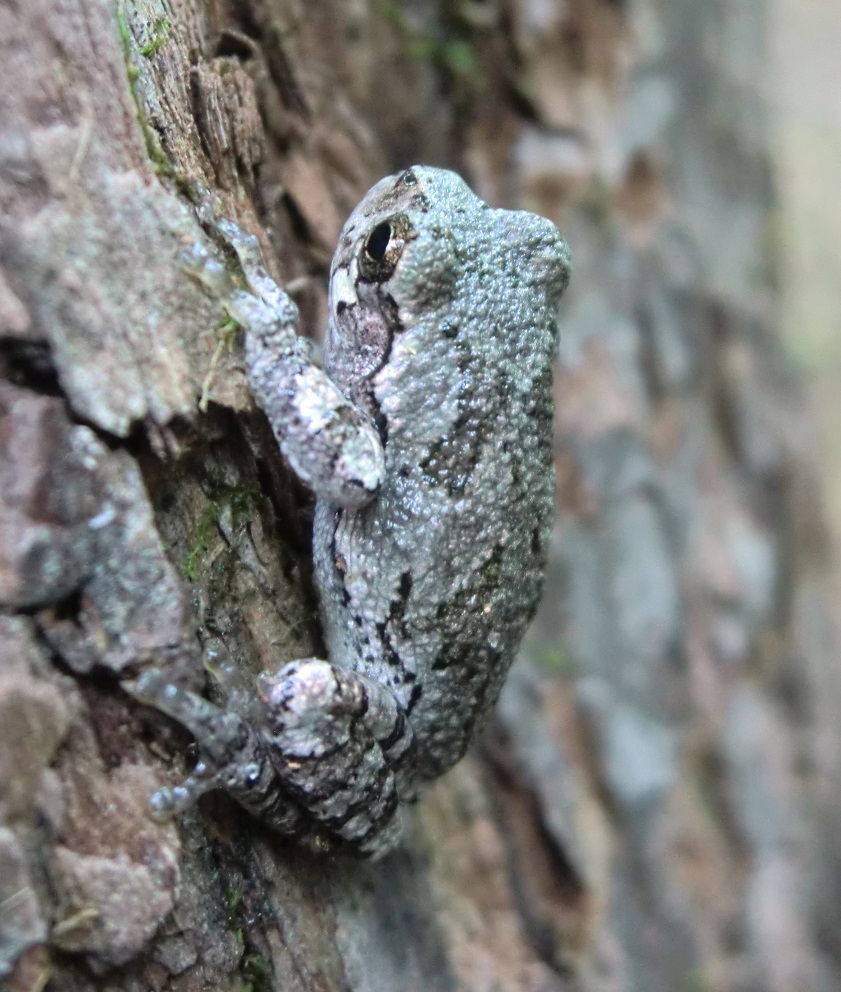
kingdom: Animalia
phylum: Chordata
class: Amphibia
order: Anura
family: Hylidae
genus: Dryophytes
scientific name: Dryophytes versicolor
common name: Gray treefrog
